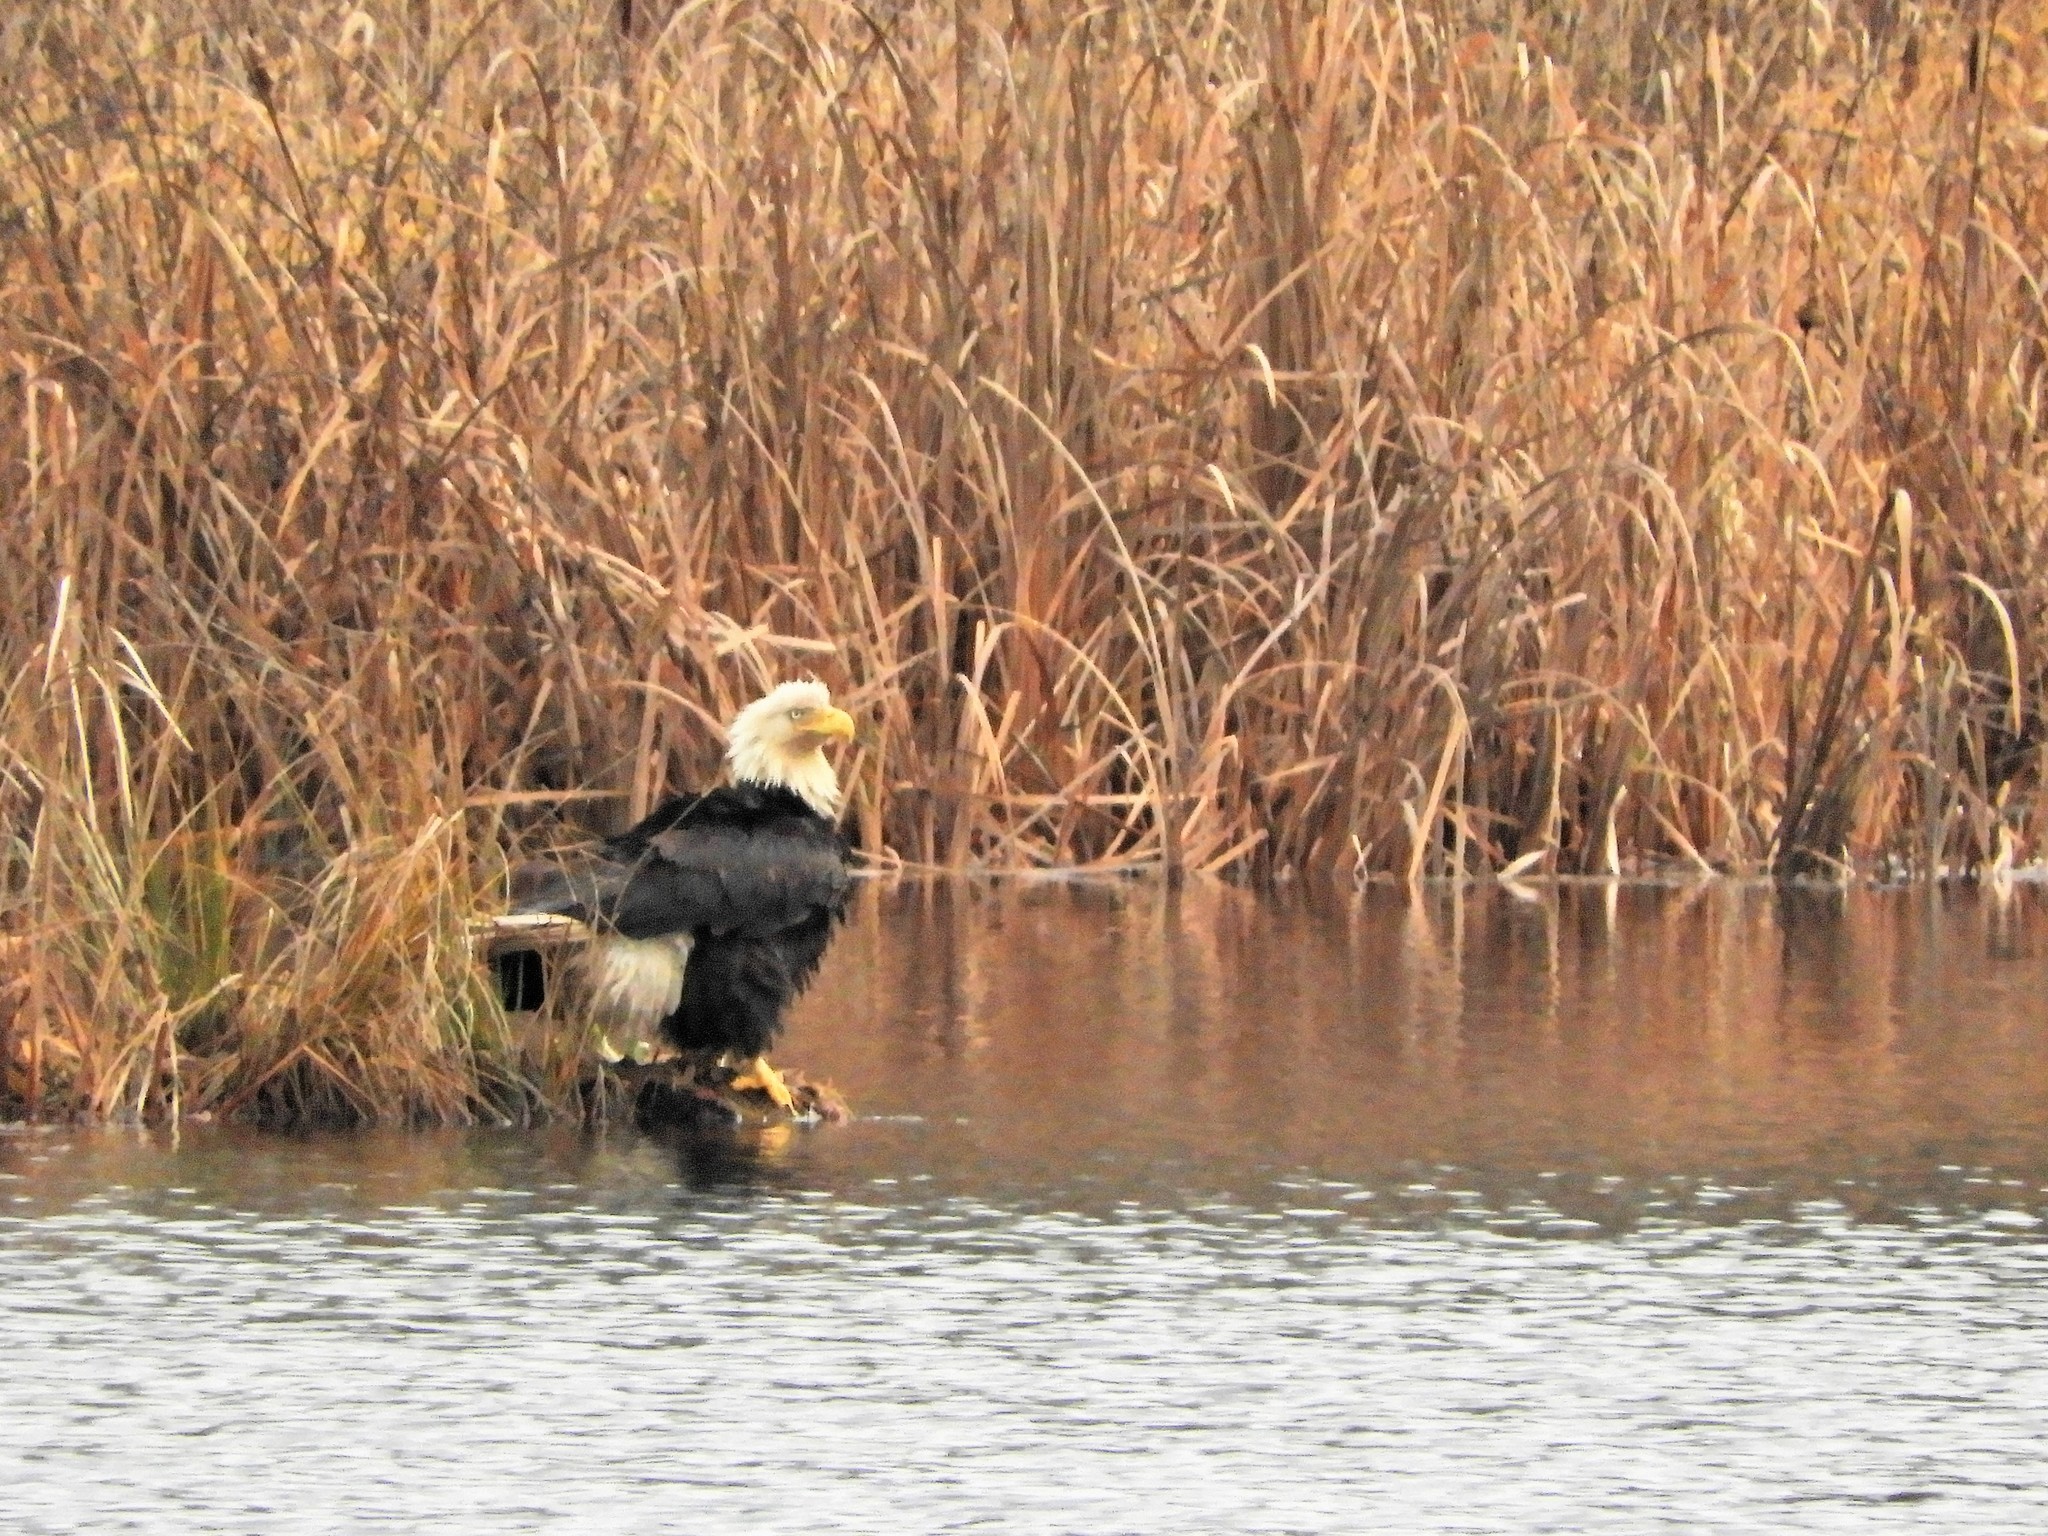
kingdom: Animalia
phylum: Chordata
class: Aves
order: Accipitriformes
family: Accipitridae
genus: Haliaeetus
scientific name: Haliaeetus leucocephalus
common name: Bald eagle
